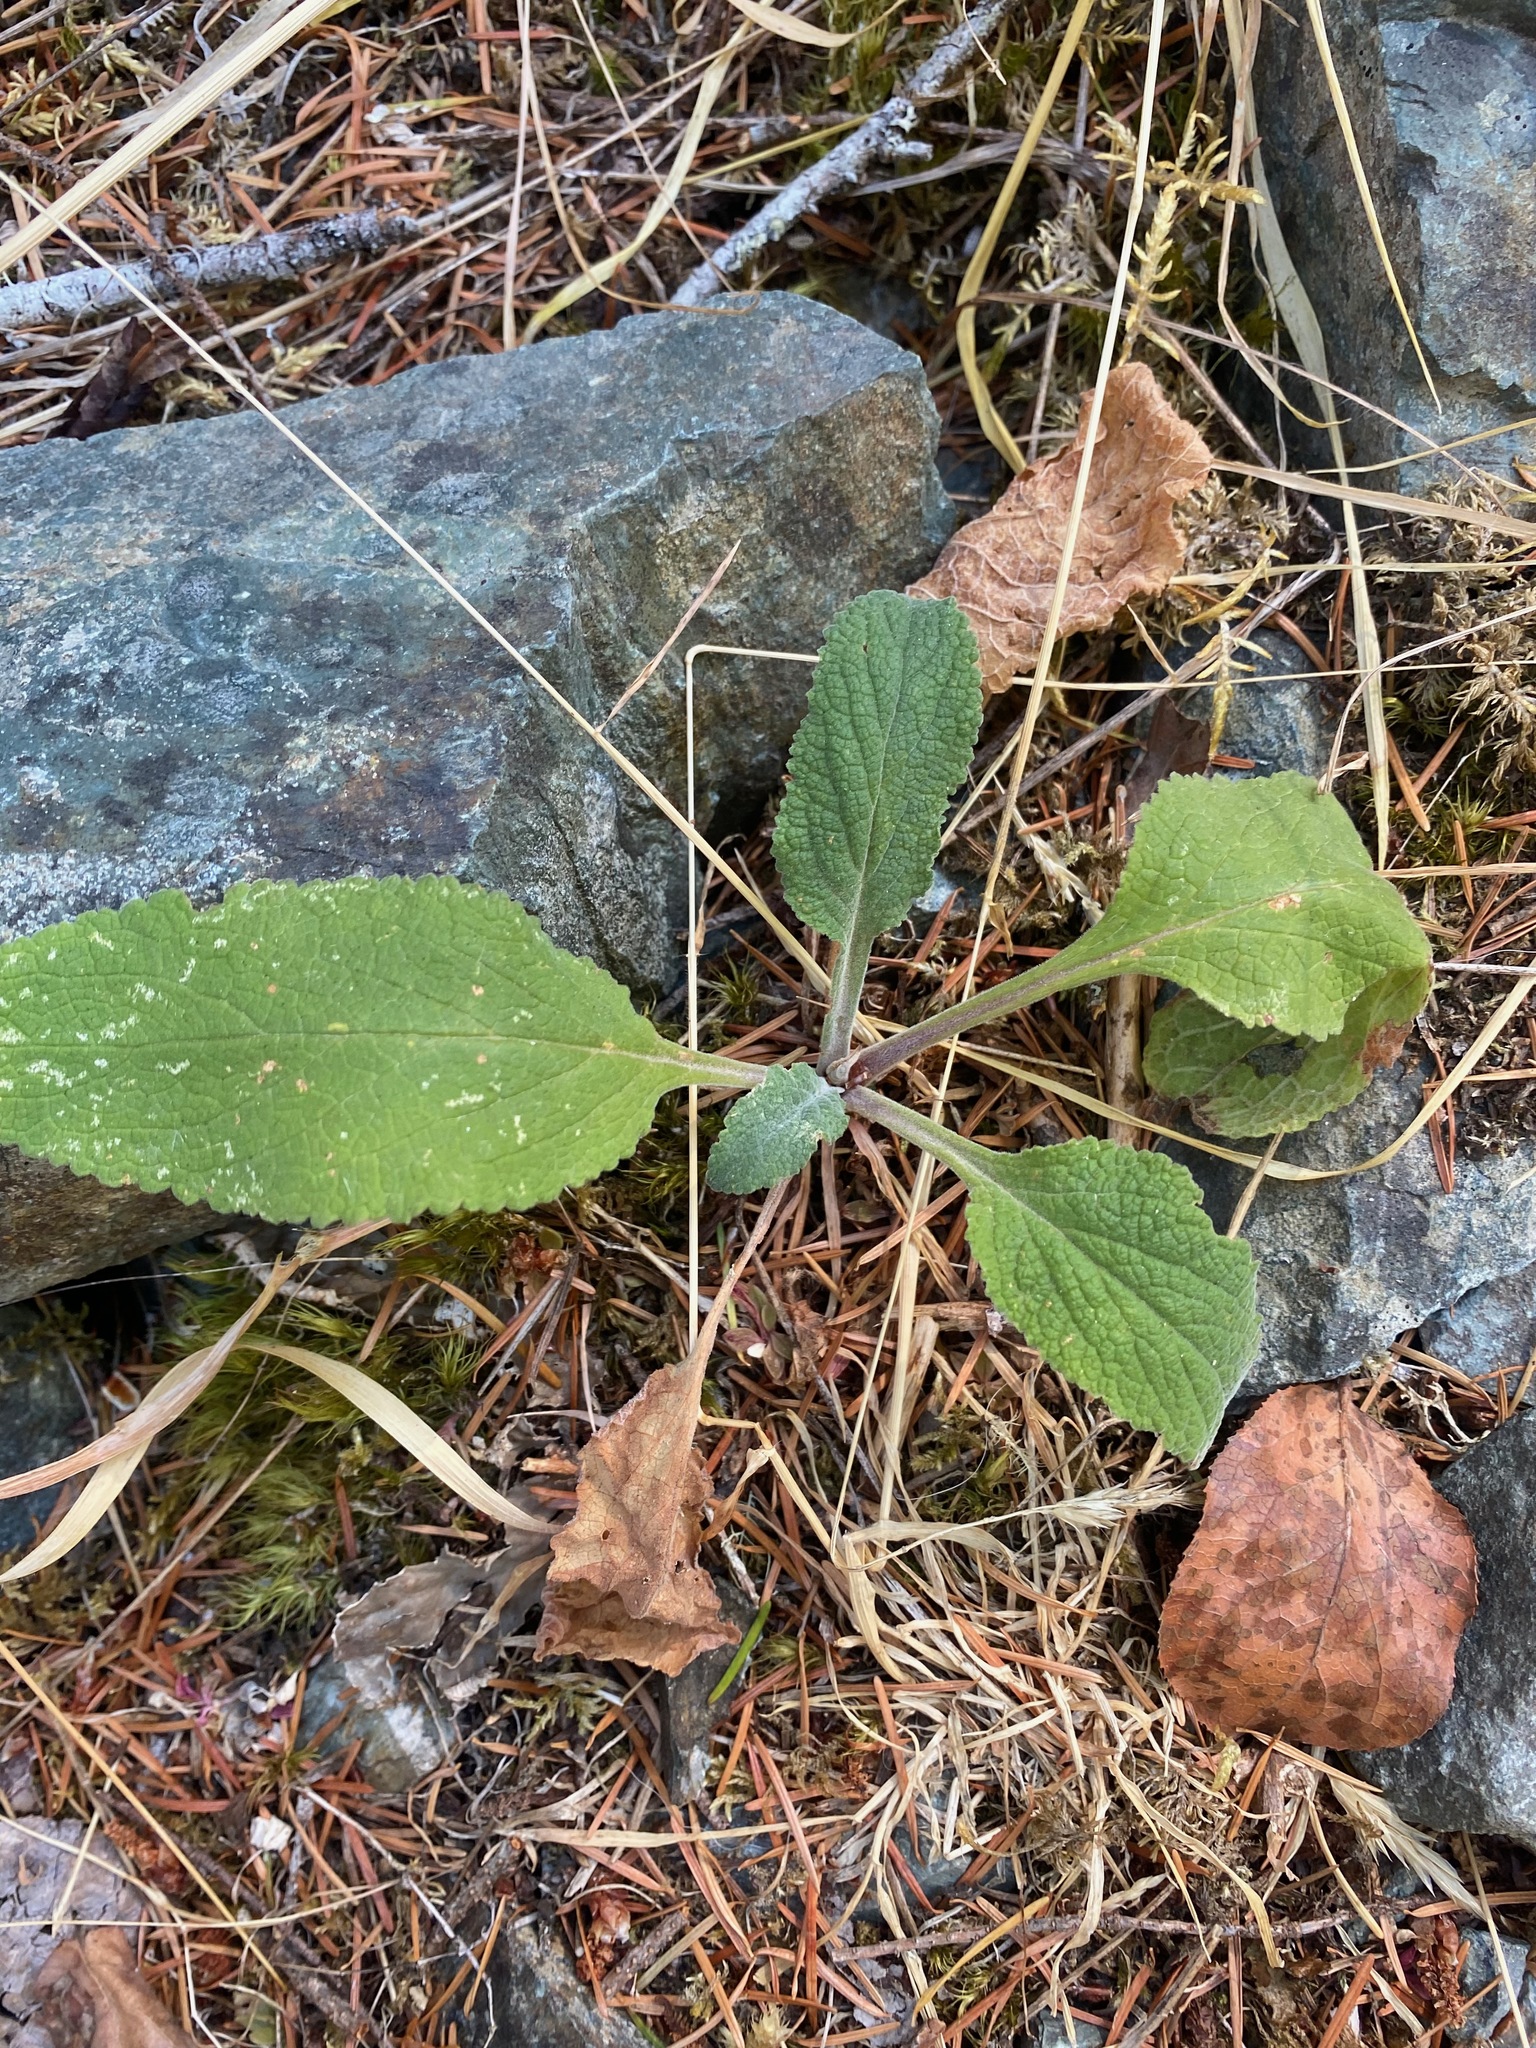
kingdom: Plantae
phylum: Tracheophyta
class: Magnoliopsida
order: Lamiales
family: Plantaginaceae
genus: Digitalis
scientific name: Digitalis purpurea
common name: Foxglove
